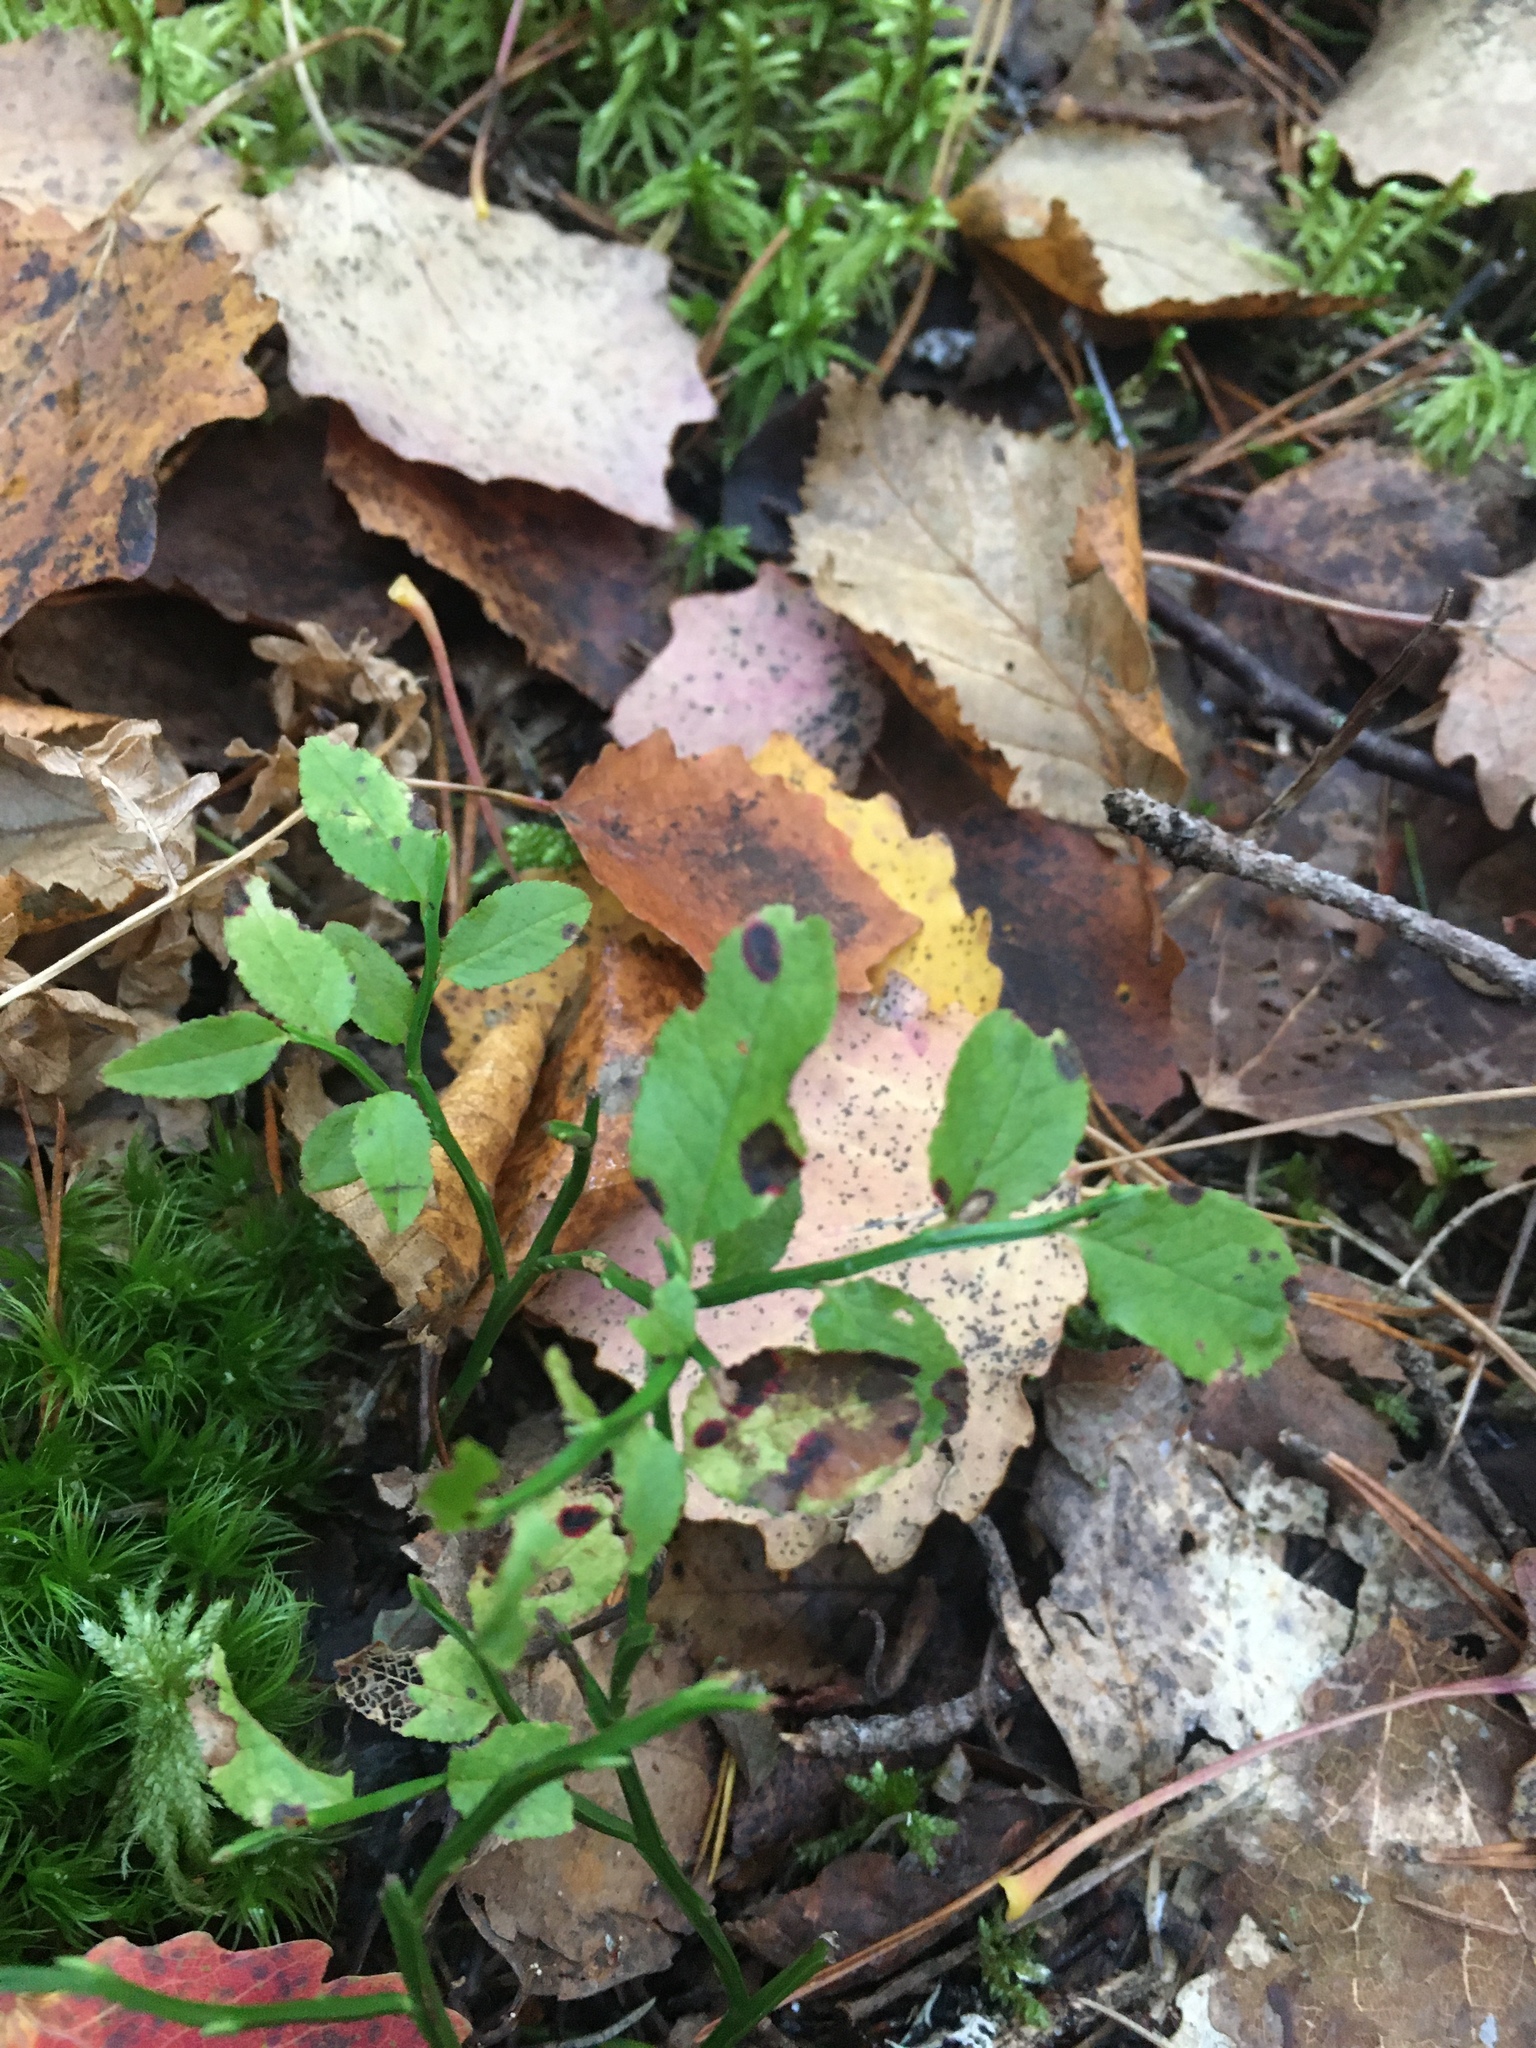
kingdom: Plantae
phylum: Tracheophyta
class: Magnoliopsida
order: Ericales
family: Ericaceae
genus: Vaccinium
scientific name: Vaccinium myrtillus
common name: Bilberry
